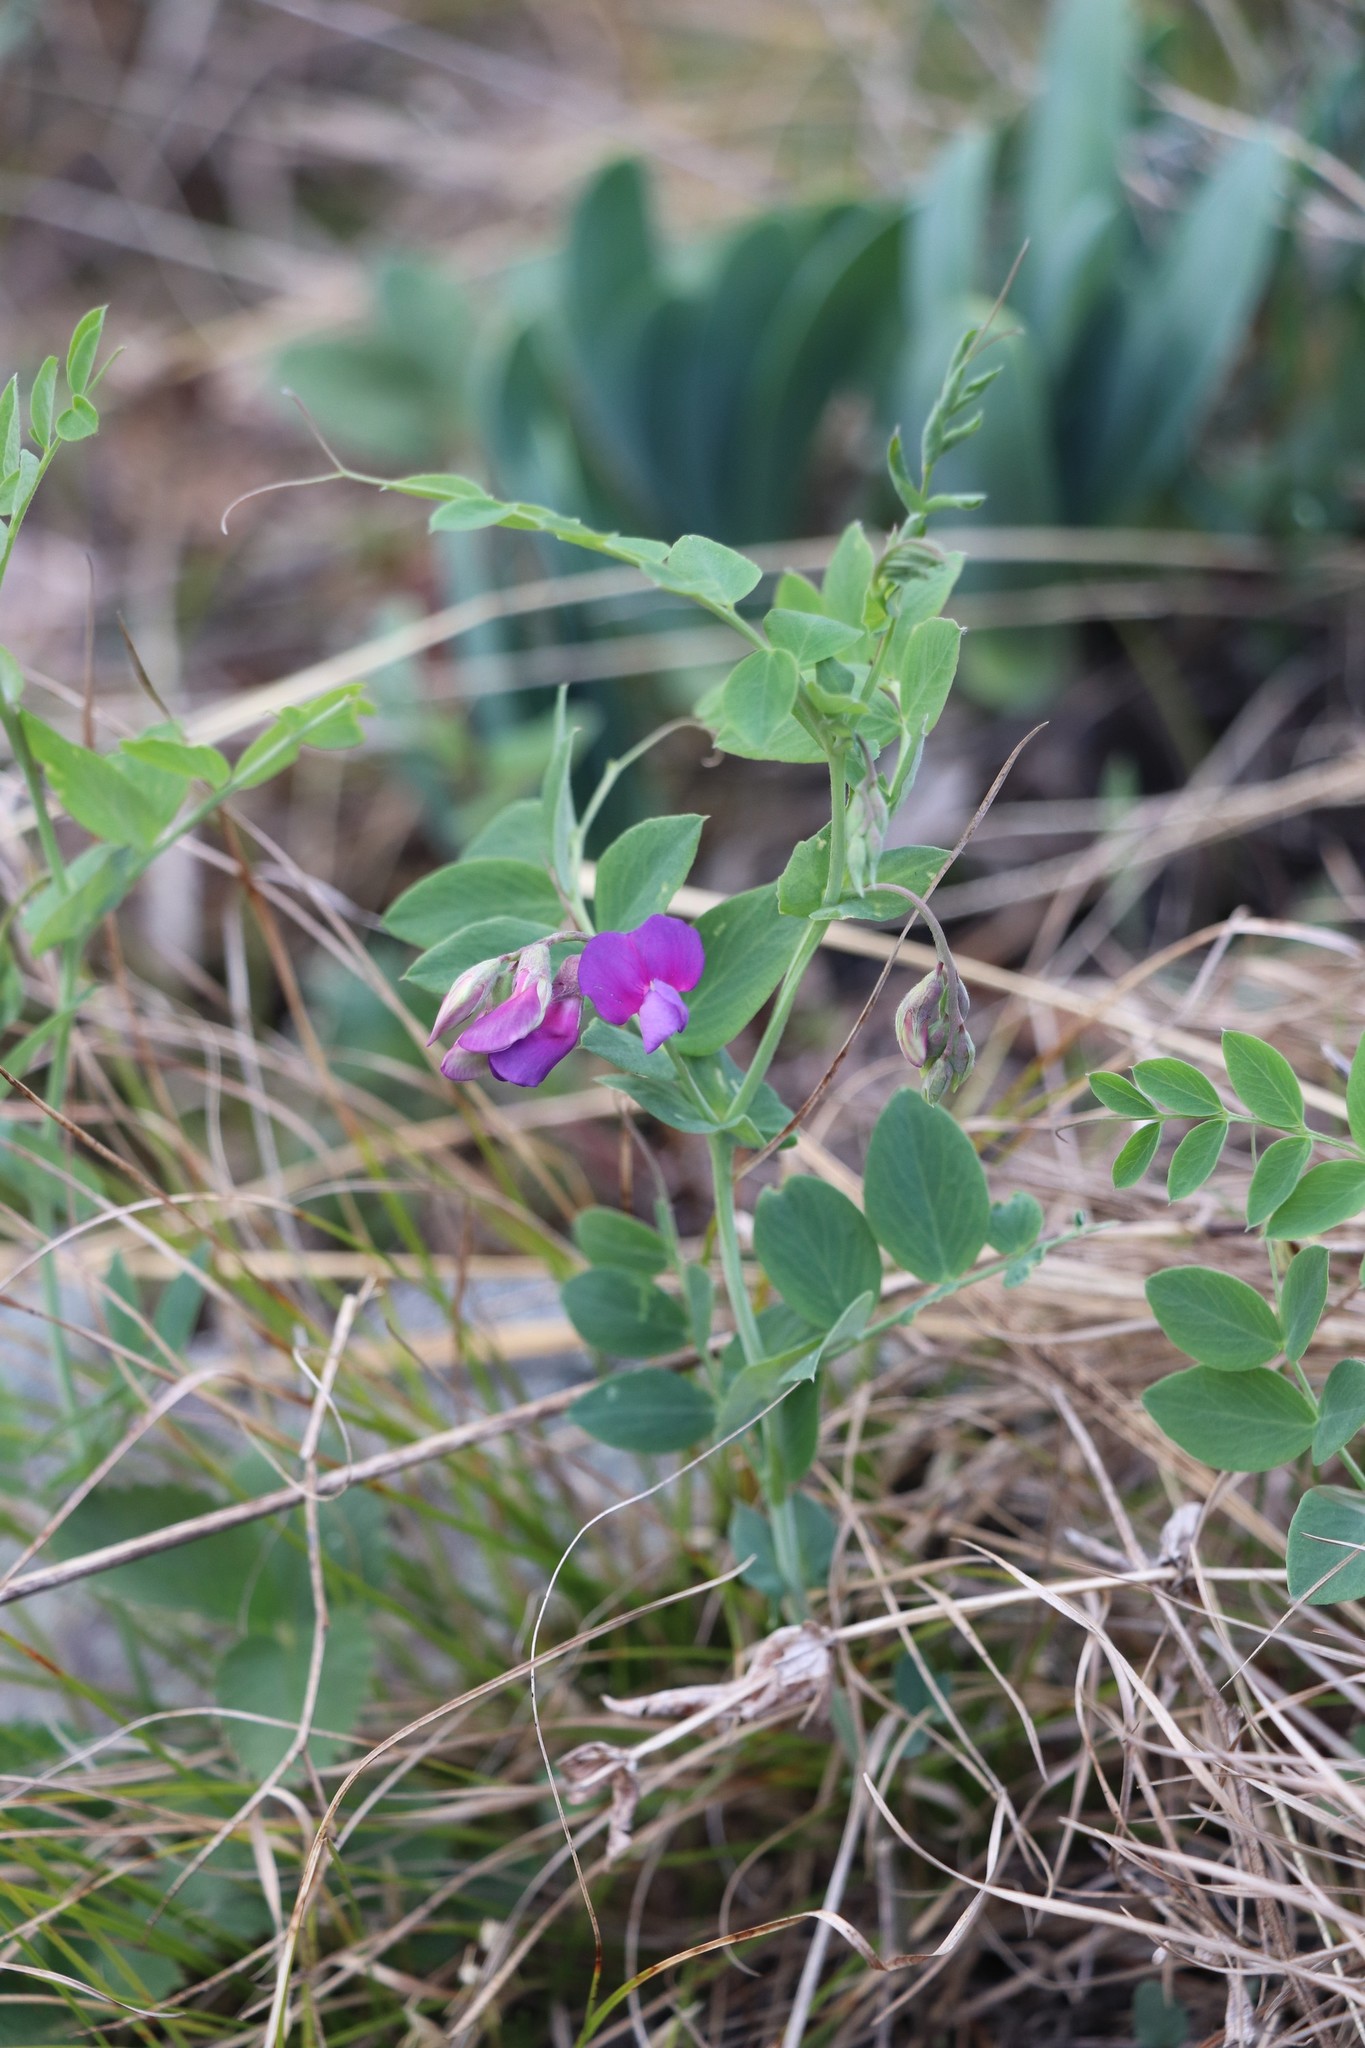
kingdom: Plantae
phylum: Tracheophyta
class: Magnoliopsida
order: Fabales
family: Fabaceae
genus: Lathyrus
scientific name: Lathyrus humilis
